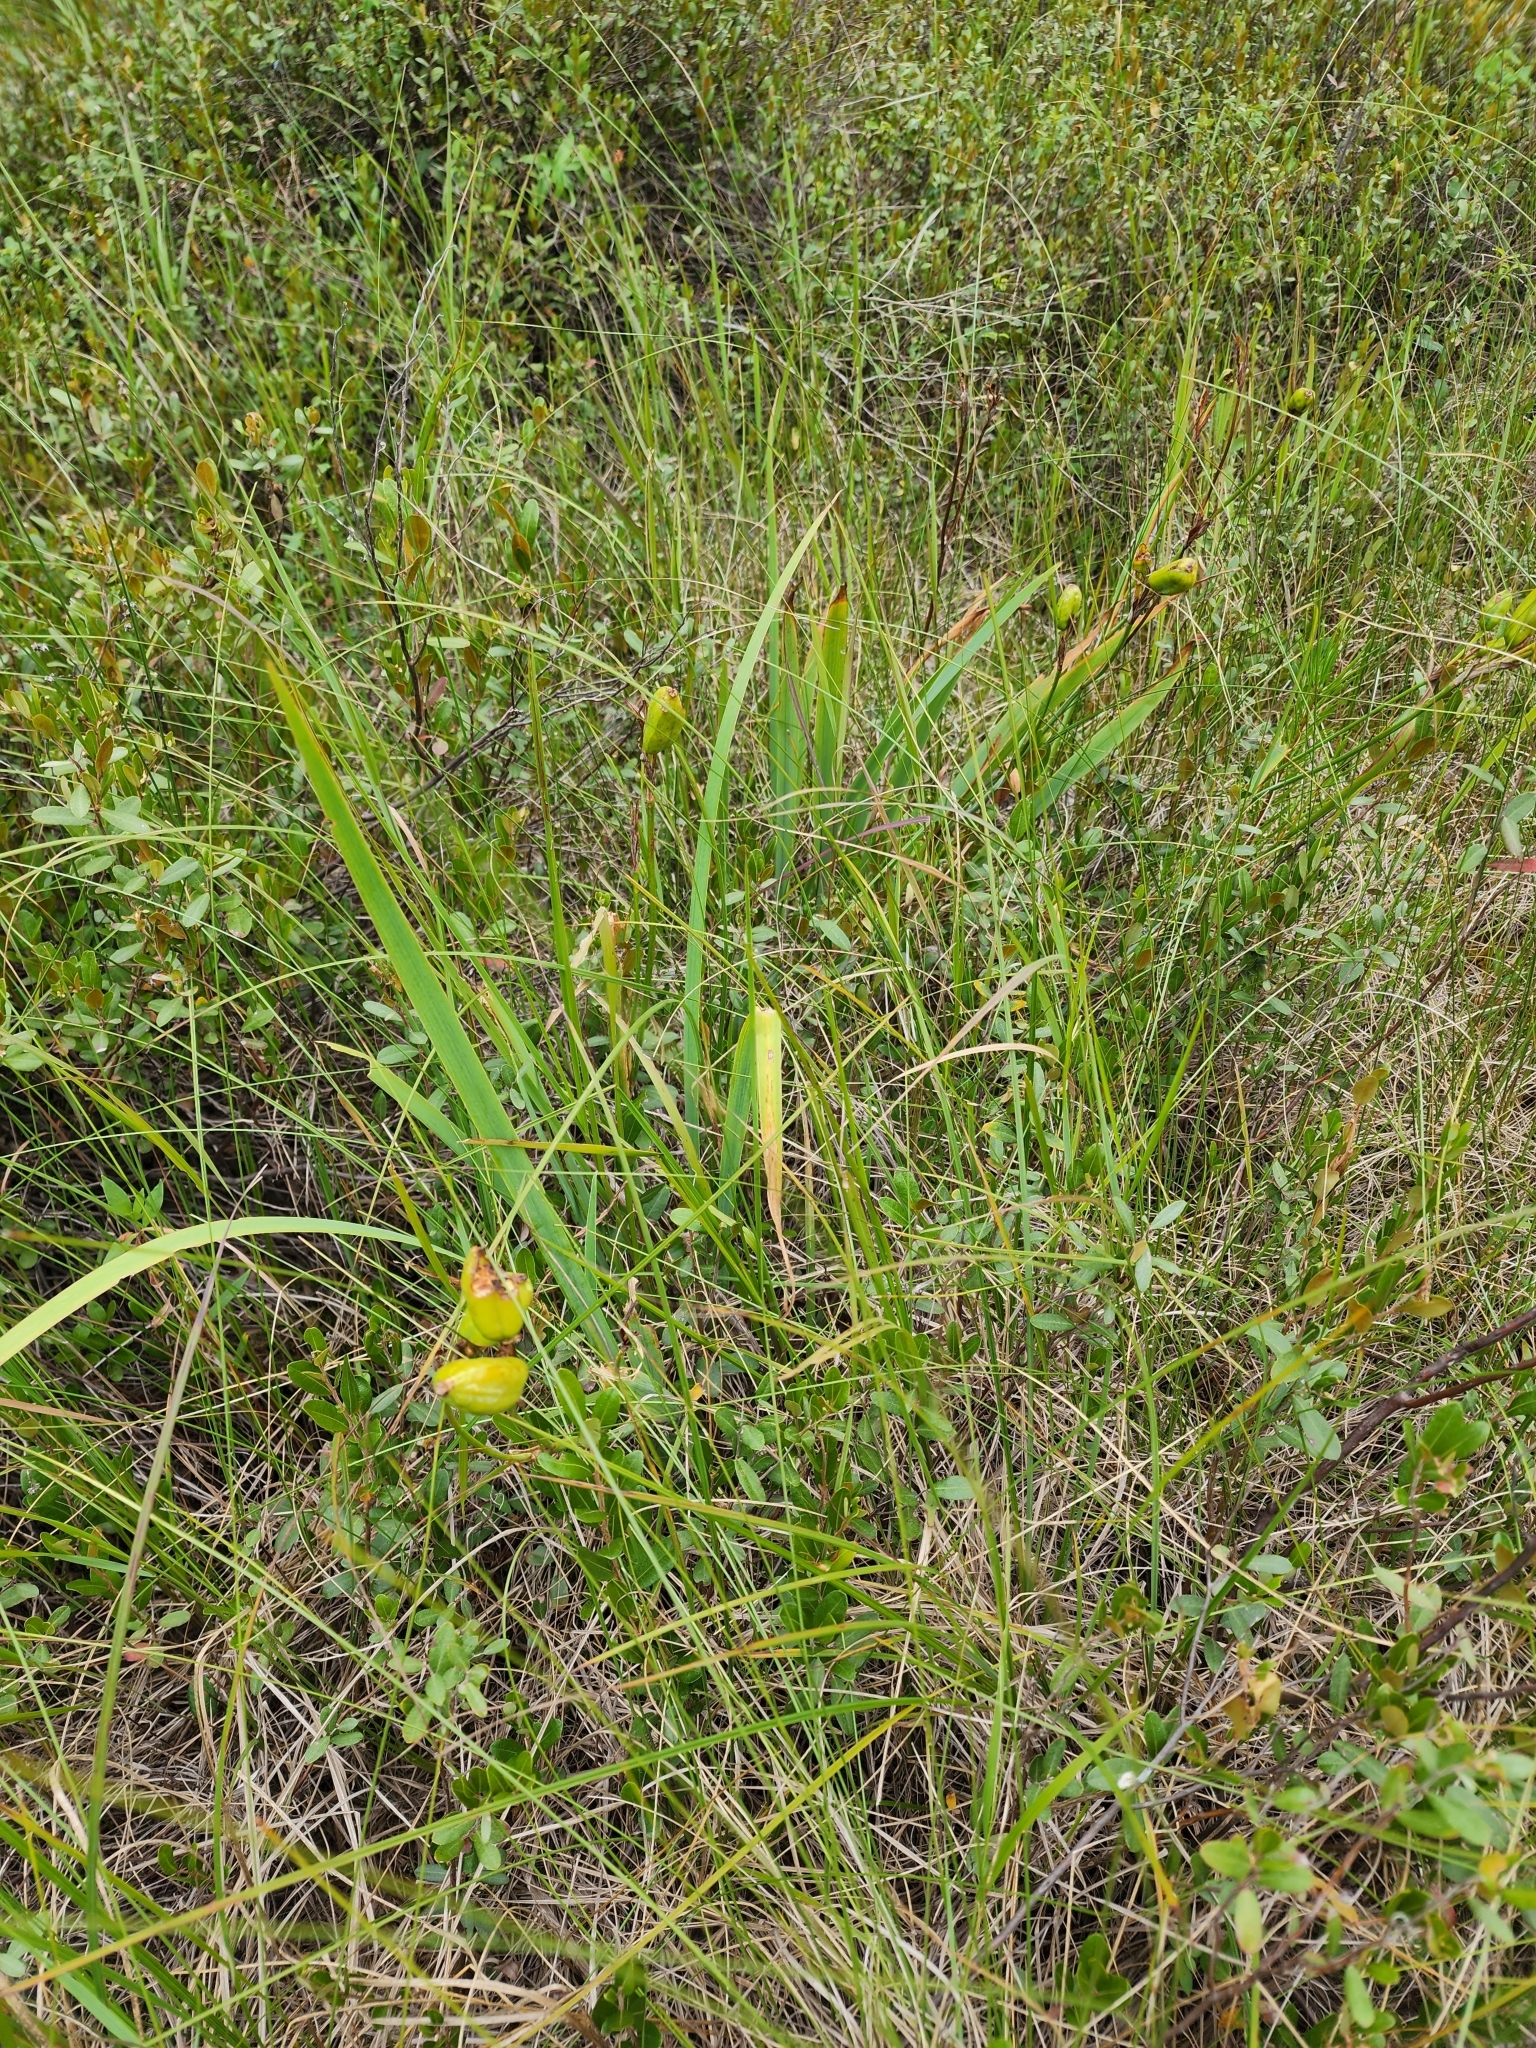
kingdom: Plantae
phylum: Tracheophyta
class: Liliopsida
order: Asparagales
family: Iridaceae
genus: Iris
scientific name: Iris versicolor
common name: Purple iris
